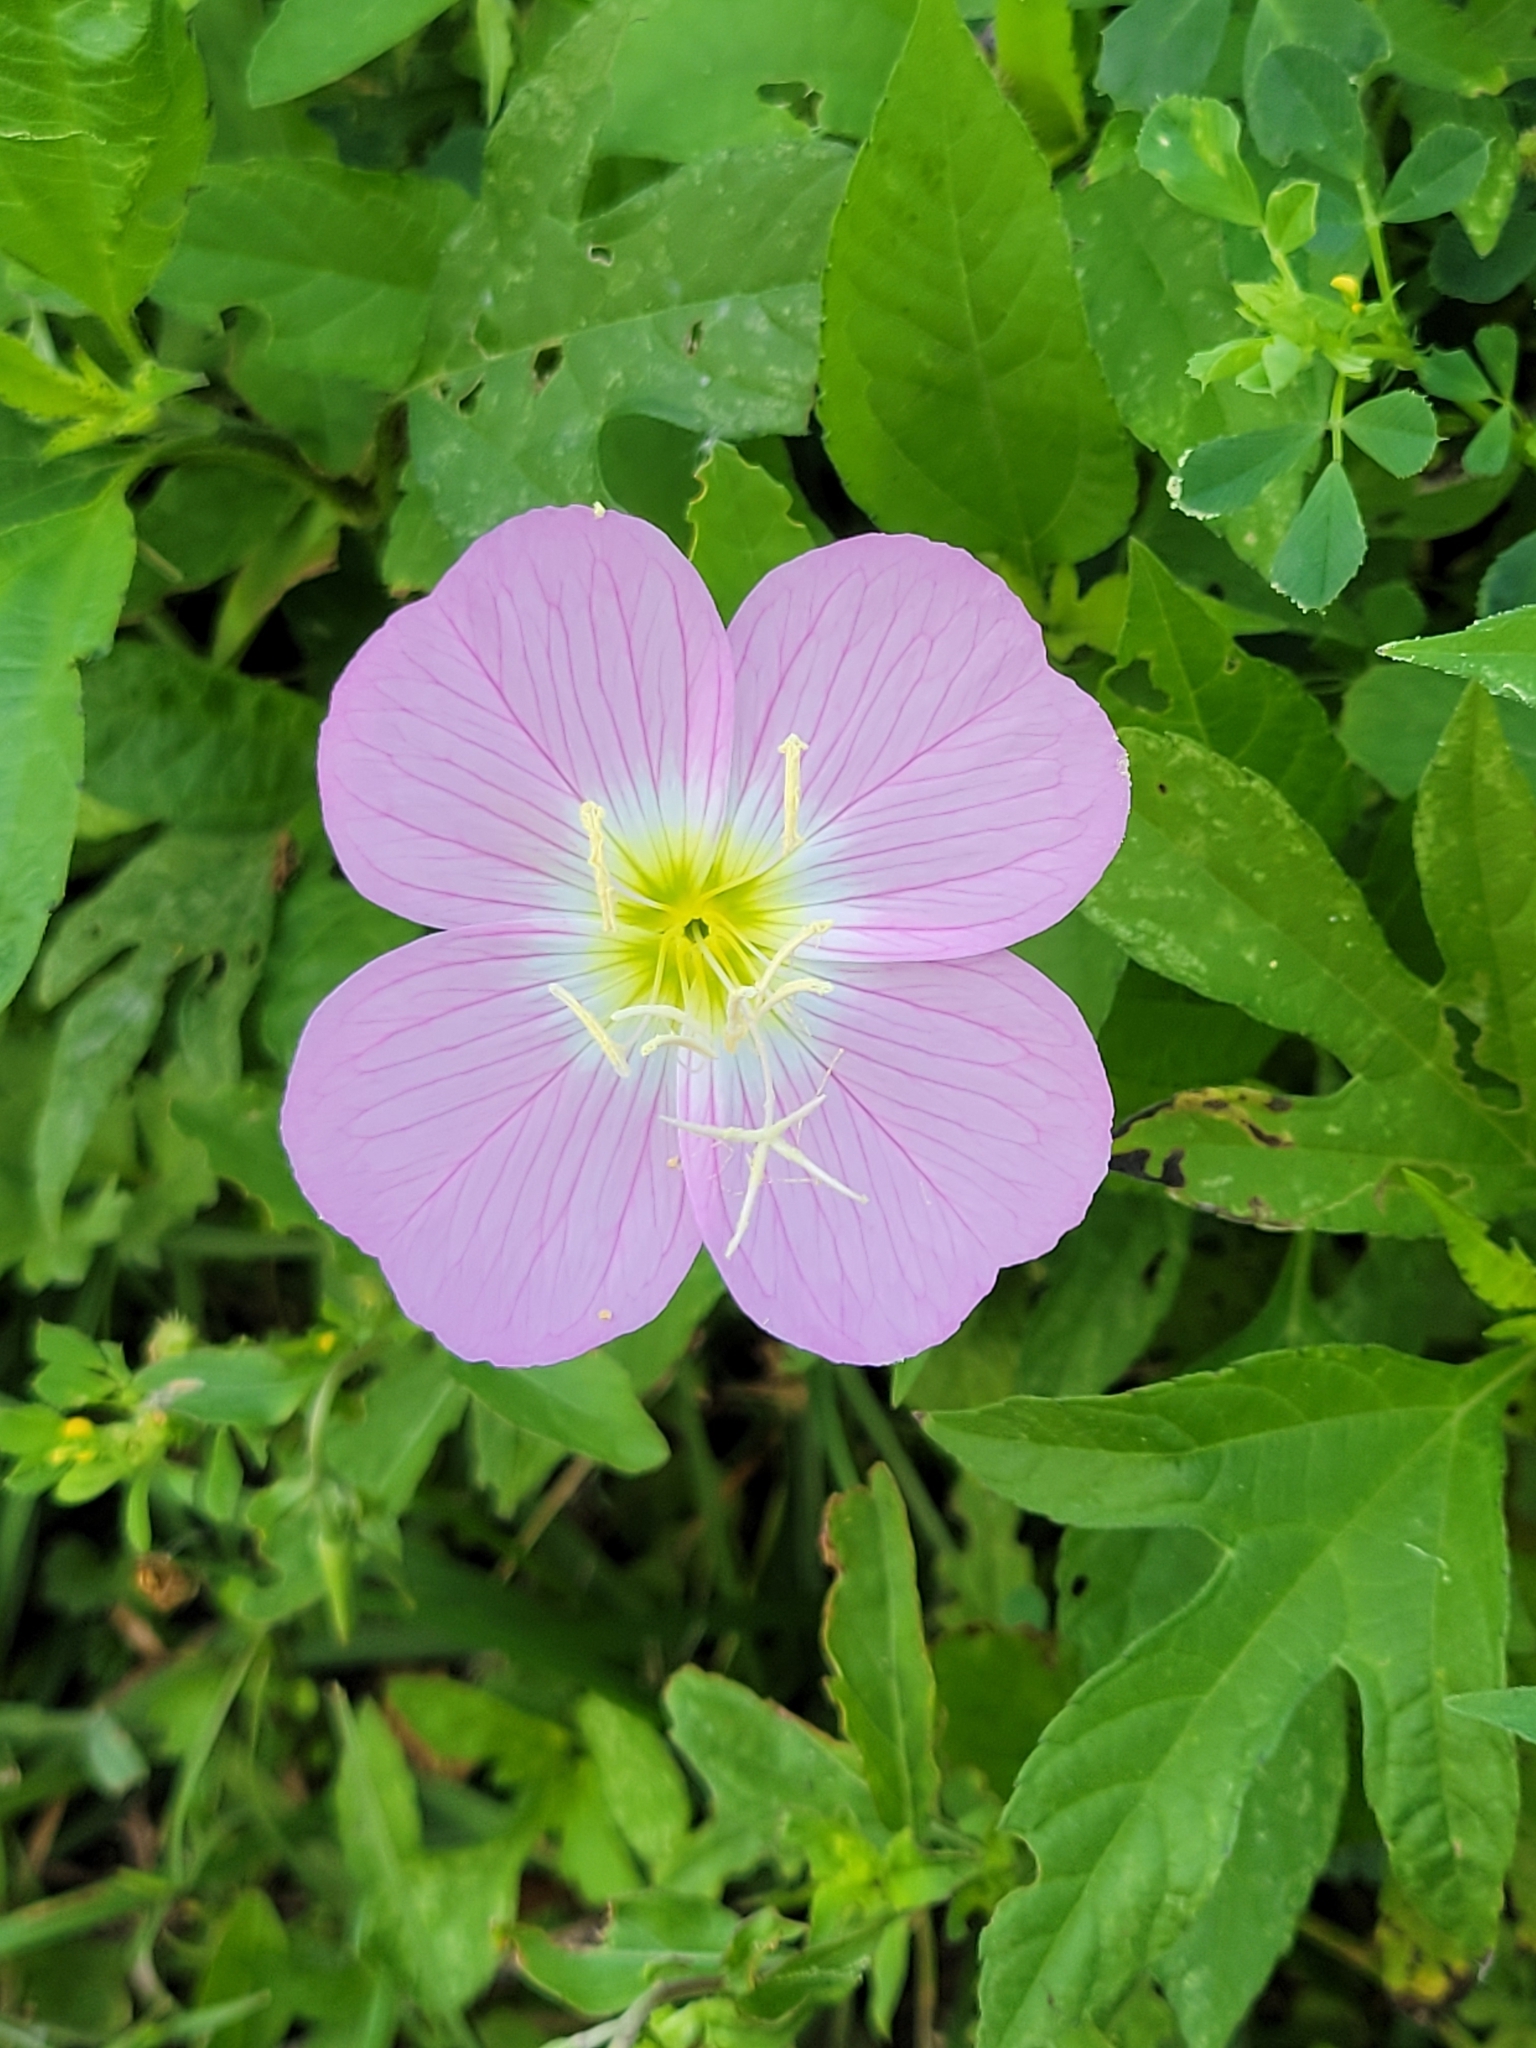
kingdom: Plantae
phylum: Tracheophyta
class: Magnoliopsida
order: Myrtales
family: Onagraceae
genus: Oenothera
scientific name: Oenothera speciosa
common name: White evening-primrose
